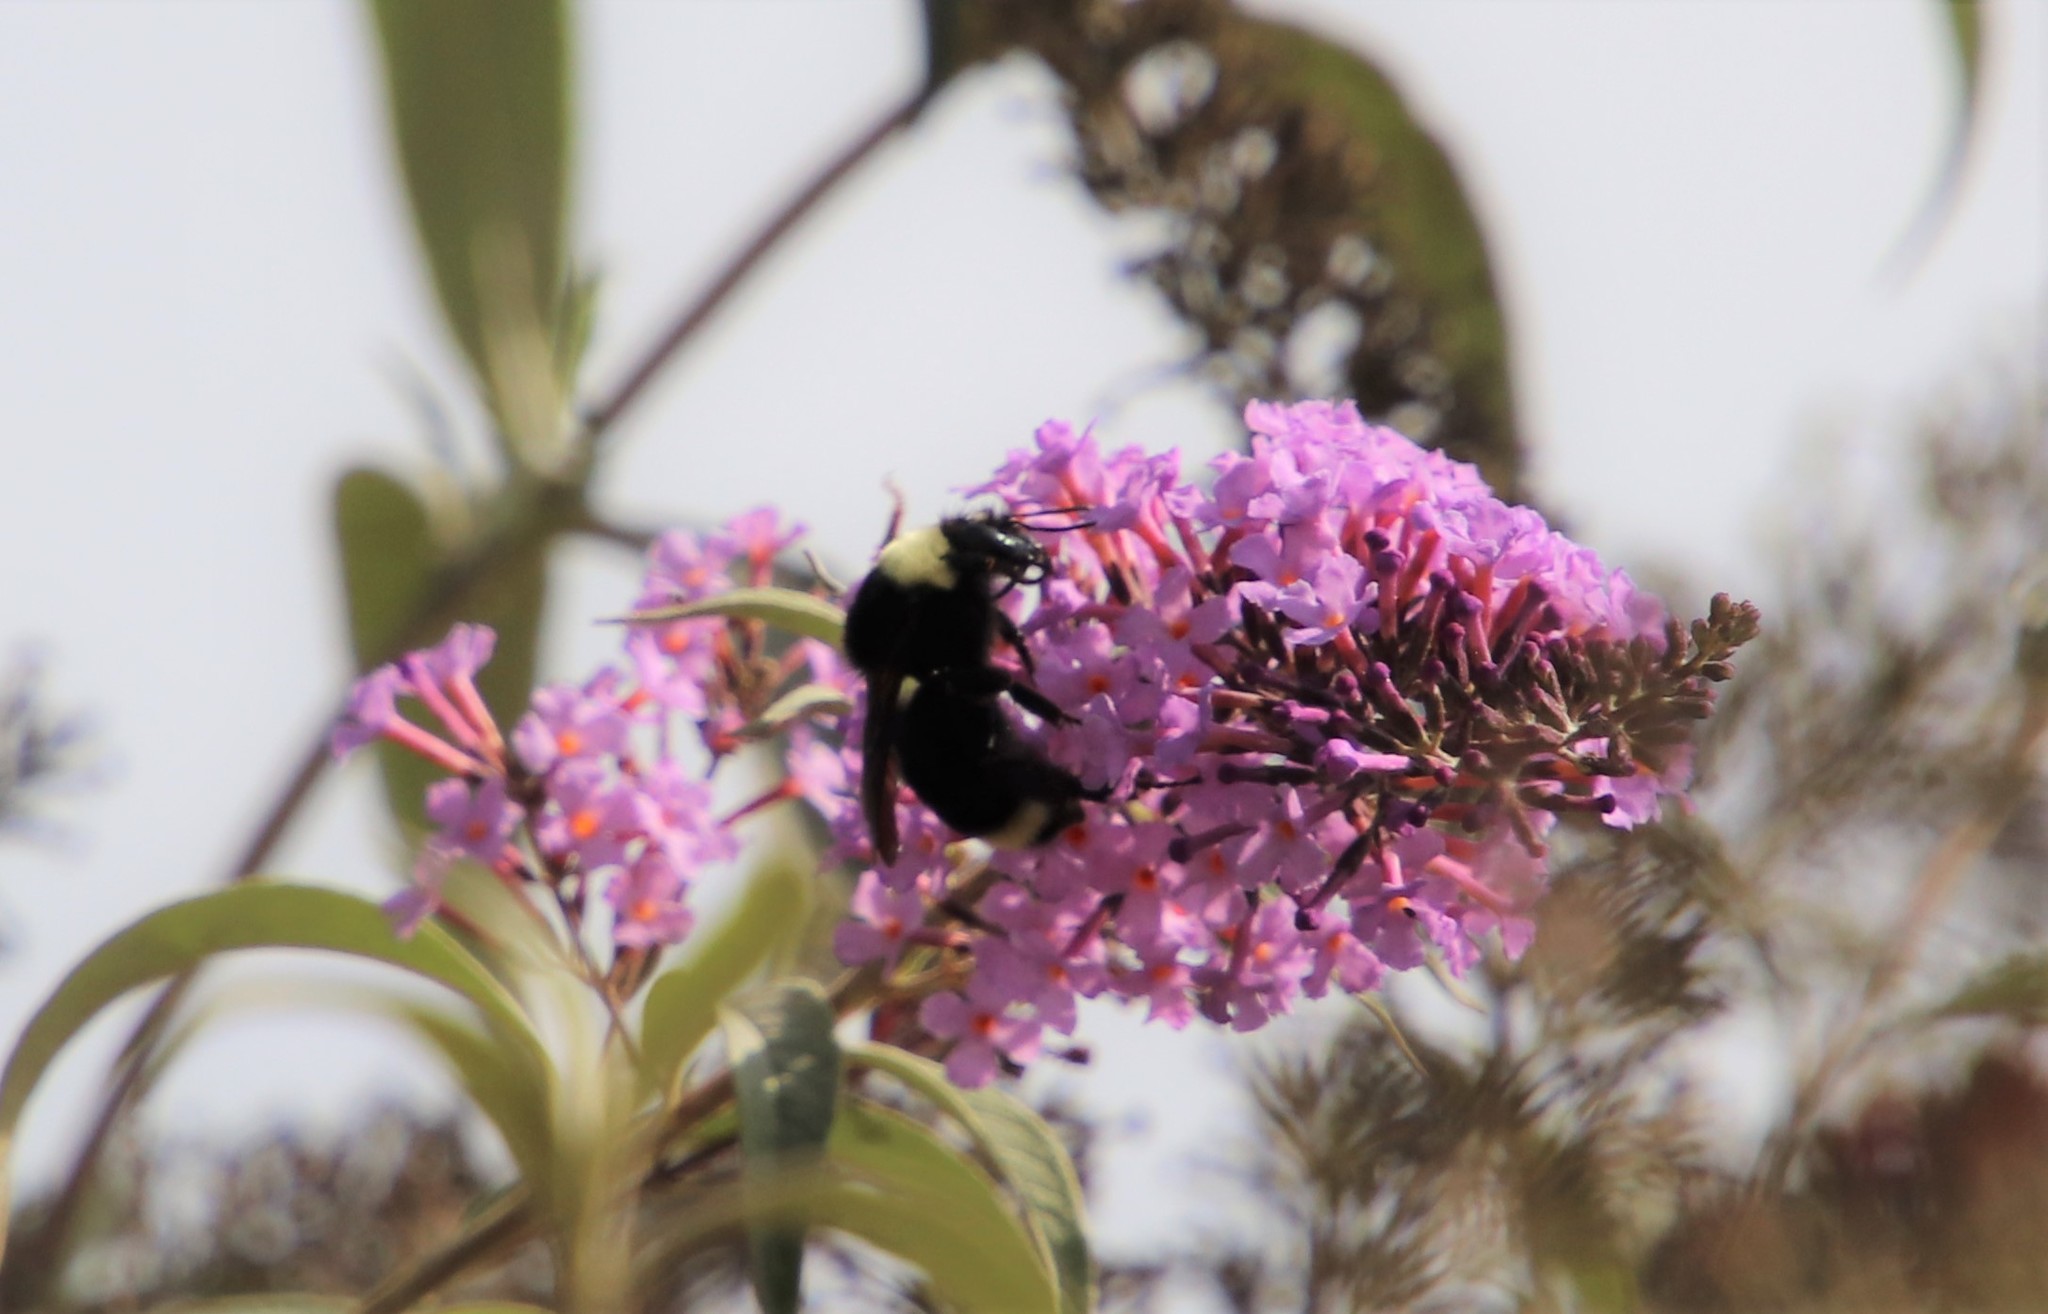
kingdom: Animalia
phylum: Arthropoda
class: Insecta
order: Hymenoptera
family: Apidae
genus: Bombus
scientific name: Bombus californicus
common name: California bumble bee
